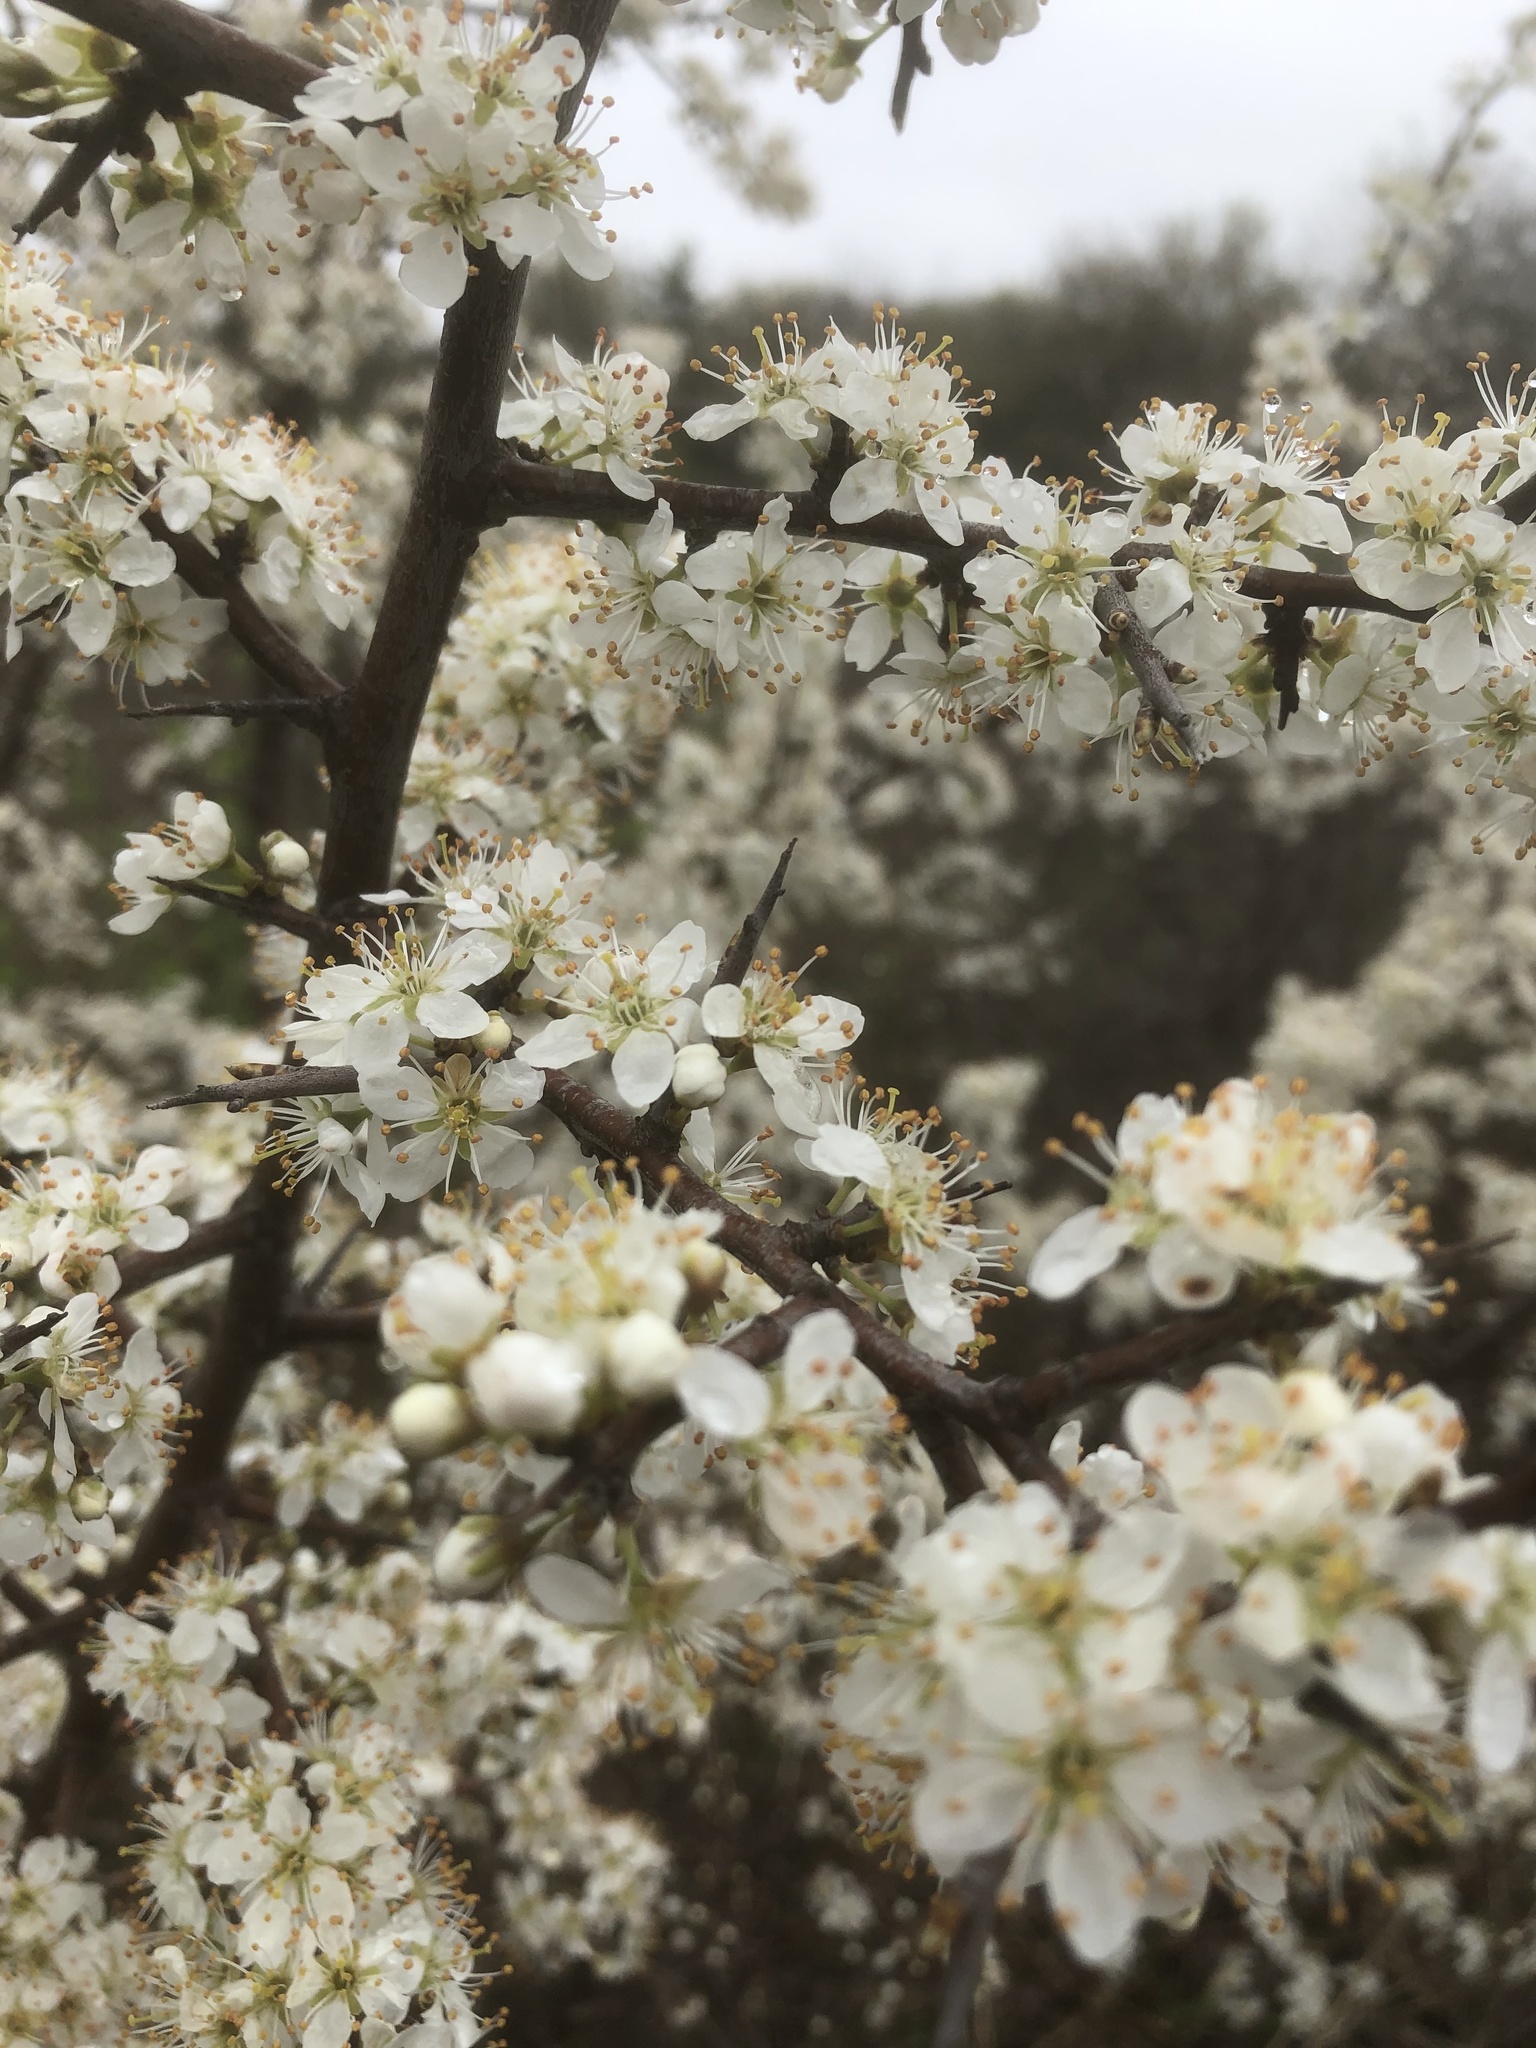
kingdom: Plantae
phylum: Tracheophyta
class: Magnoliopsida
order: Rosales
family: Rosaceae
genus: Prunus
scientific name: Prunus americana
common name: American plum
